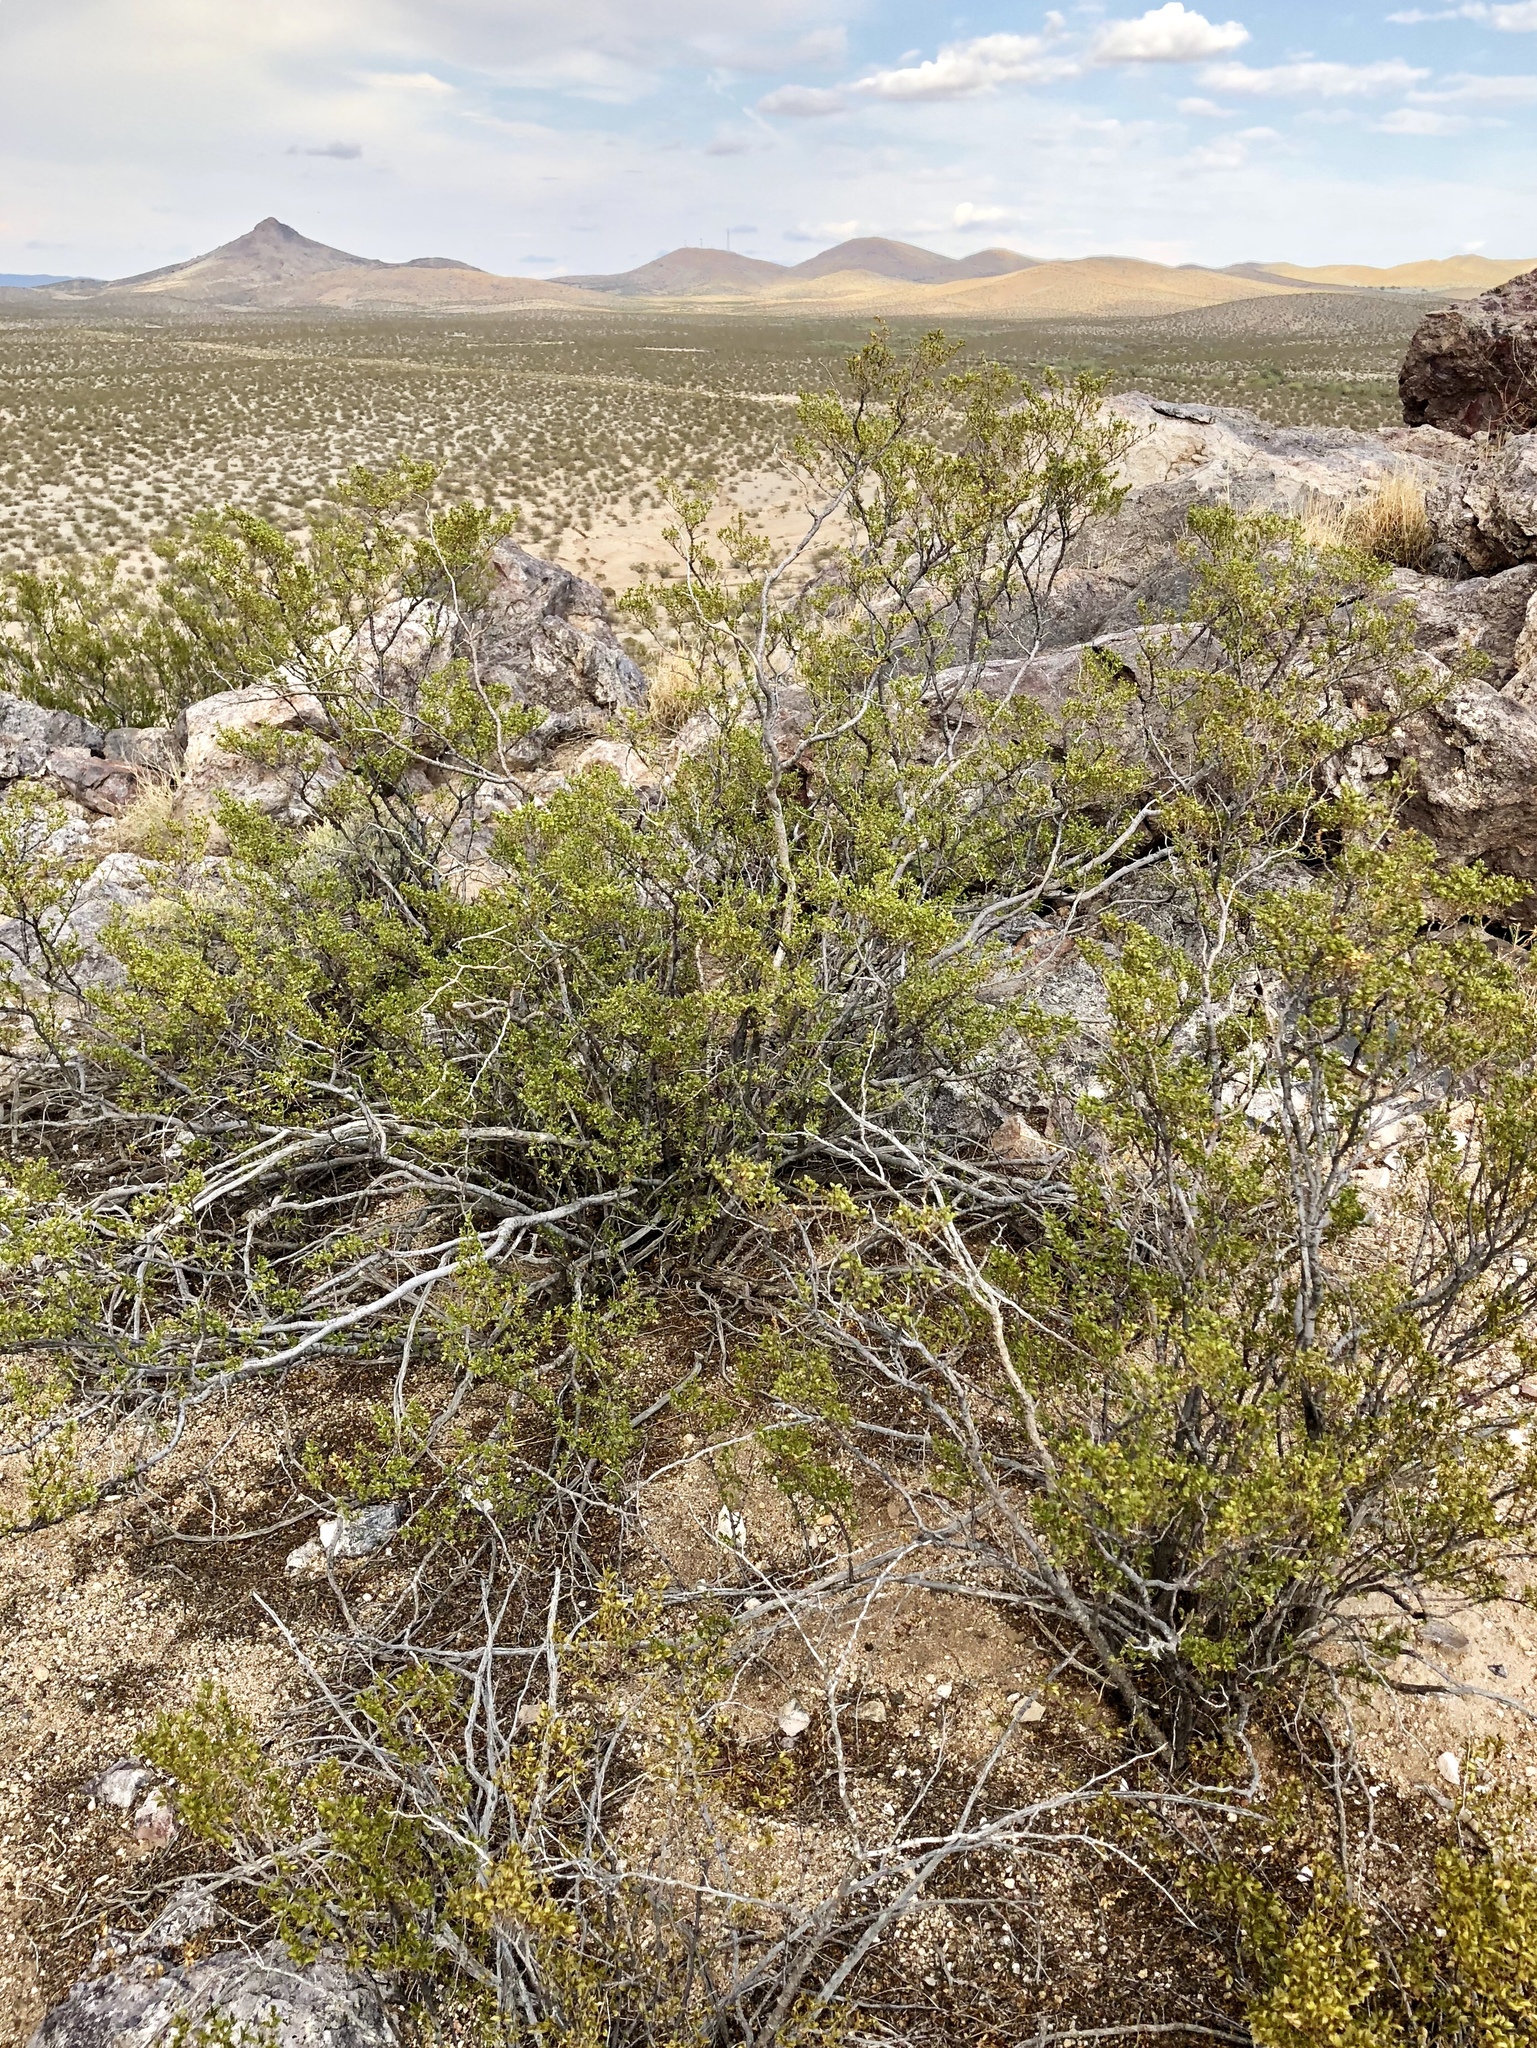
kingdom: Plantae
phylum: Tracheophyta
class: Magnoliopsida
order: Zygophyllales
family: Zygophyllaceae
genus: Larrea
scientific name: Larrea tridentata
